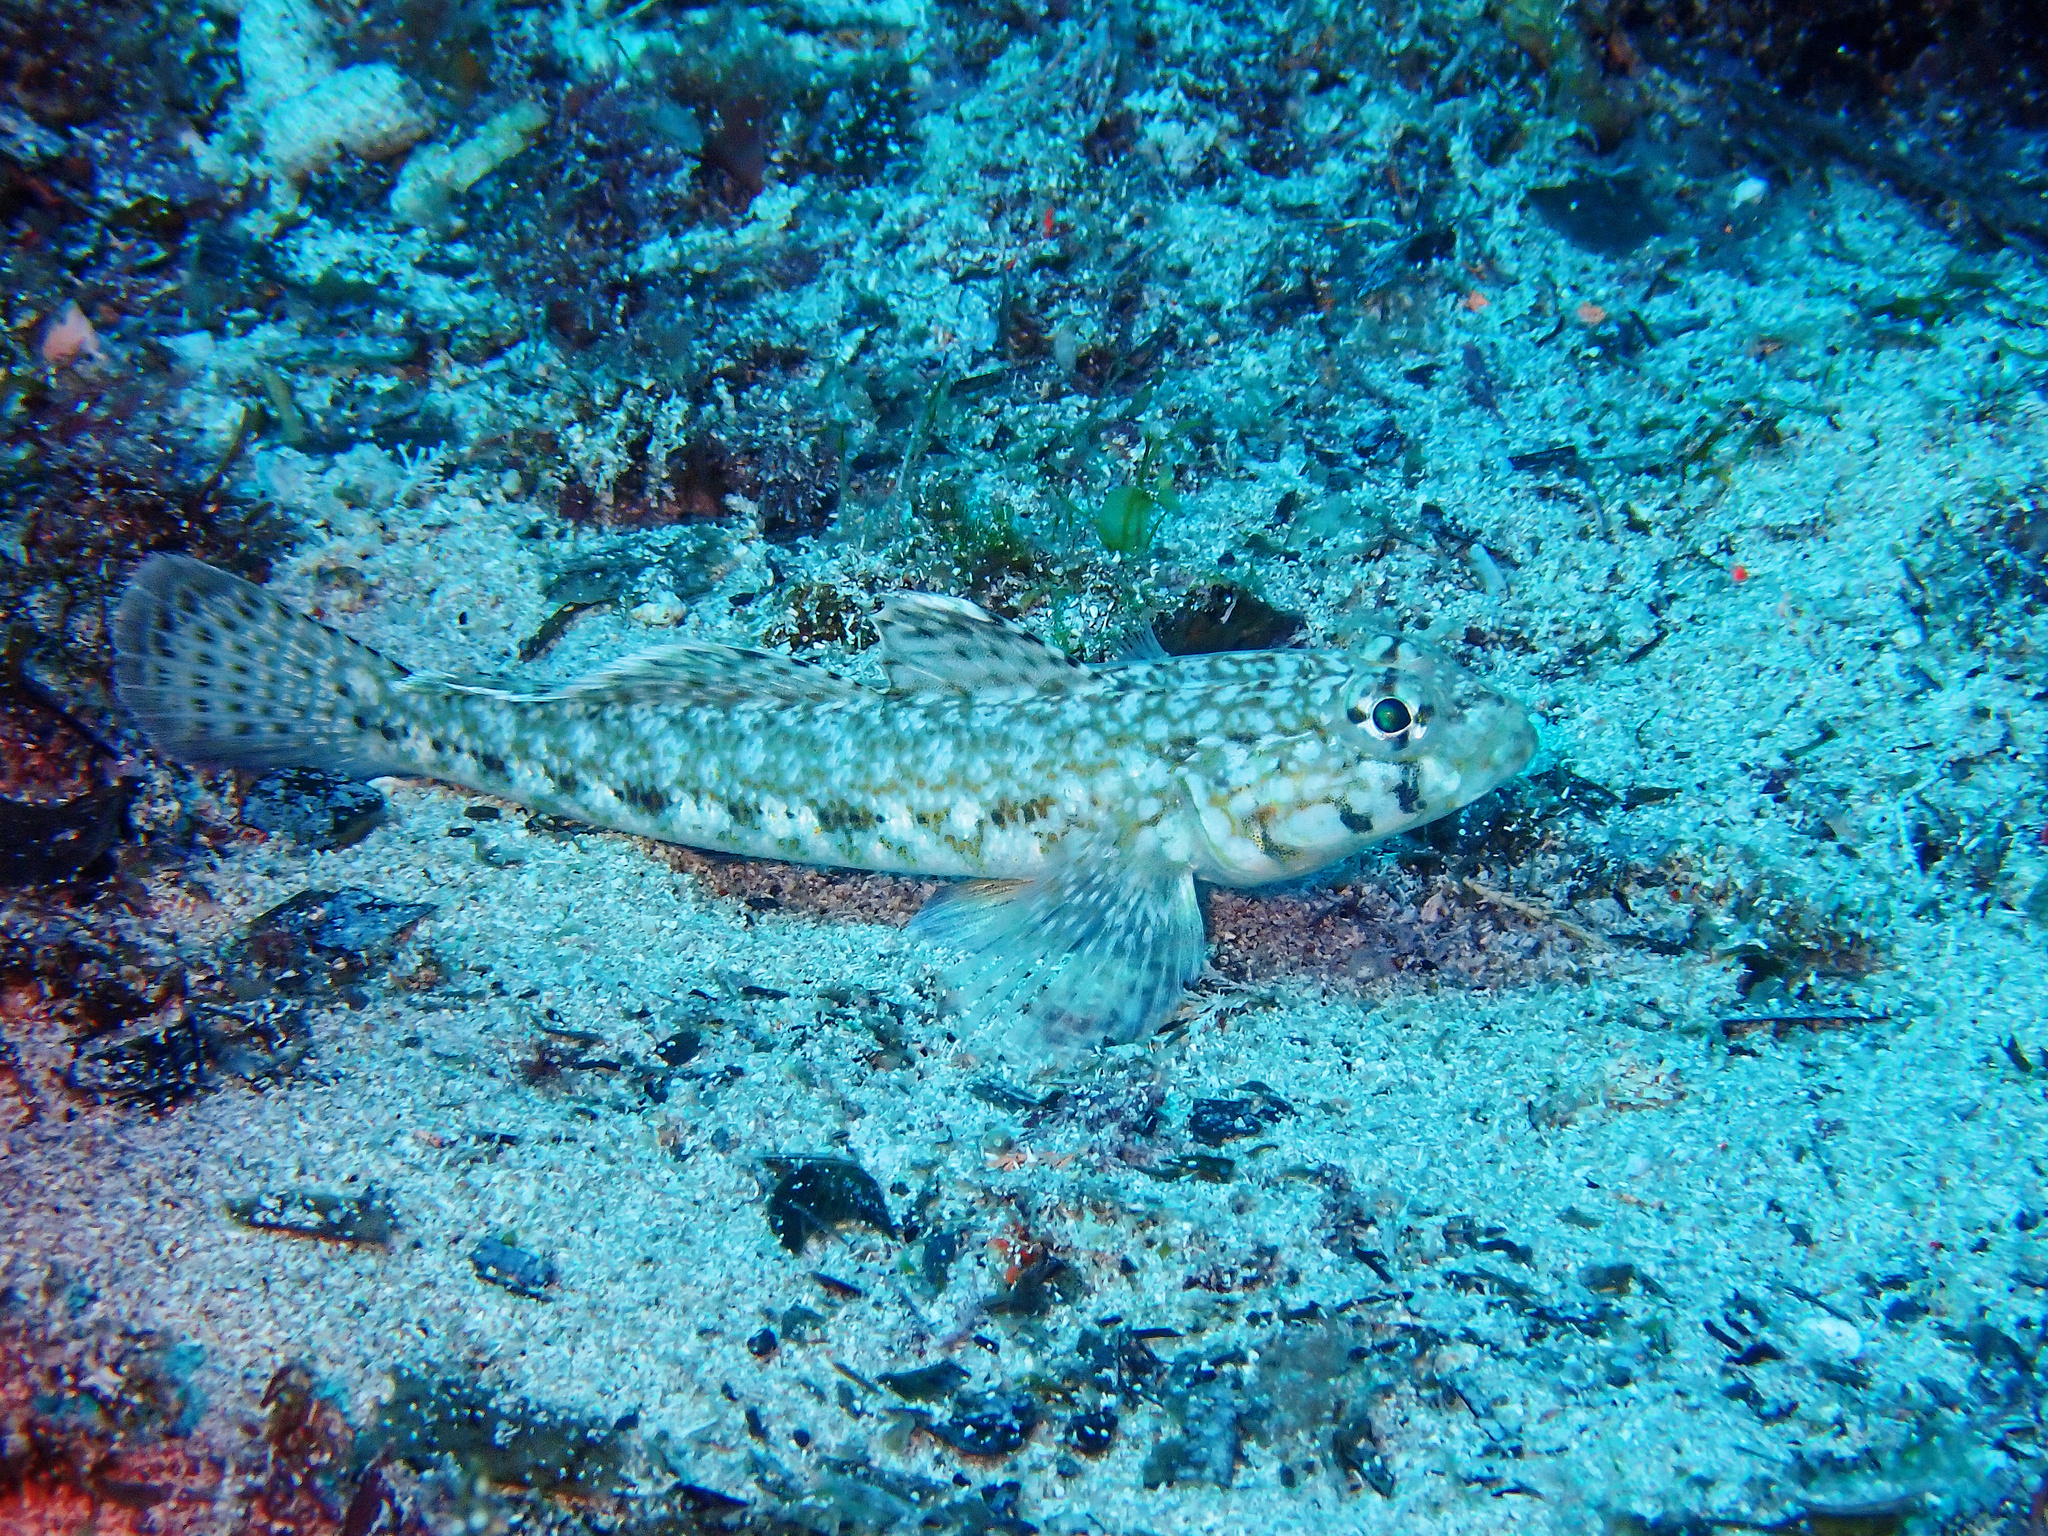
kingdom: Animalia
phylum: Chordata
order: Perciformes
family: Gobiidae
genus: Gobius
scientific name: Gobius geniporus
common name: Slender goby
